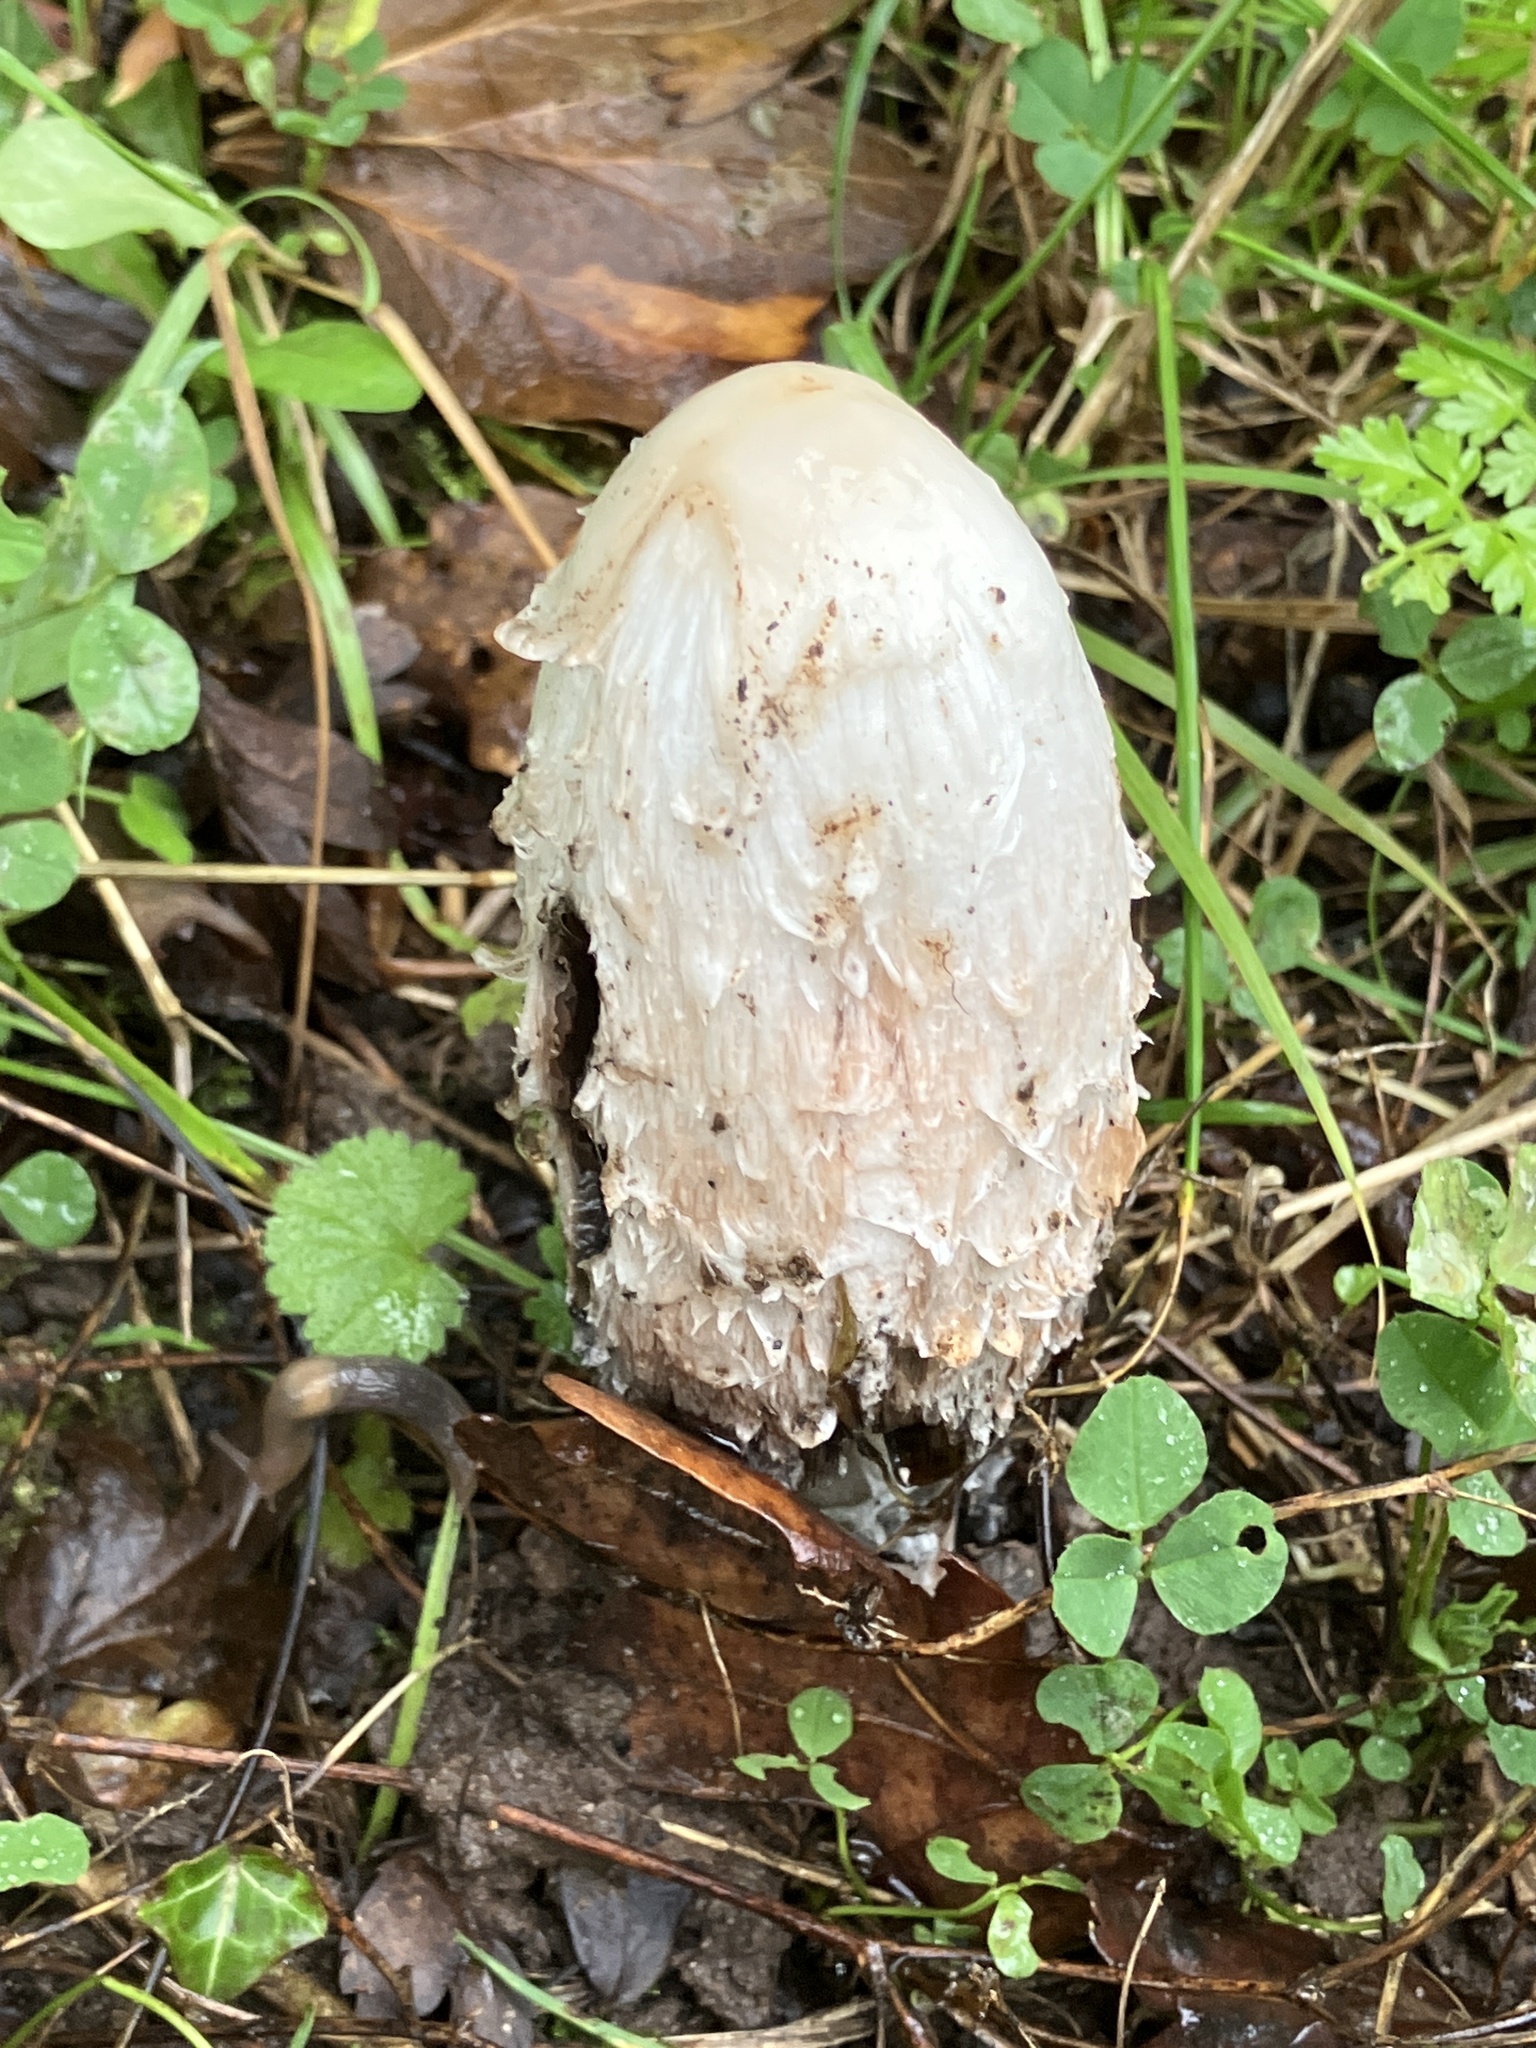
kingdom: Fungi
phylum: Basidiomycota
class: Agaricomycetes
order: Agaricales
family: Agaricaceae
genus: Coprinus
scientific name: Coprinus comatus
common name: Lawyer's wig
